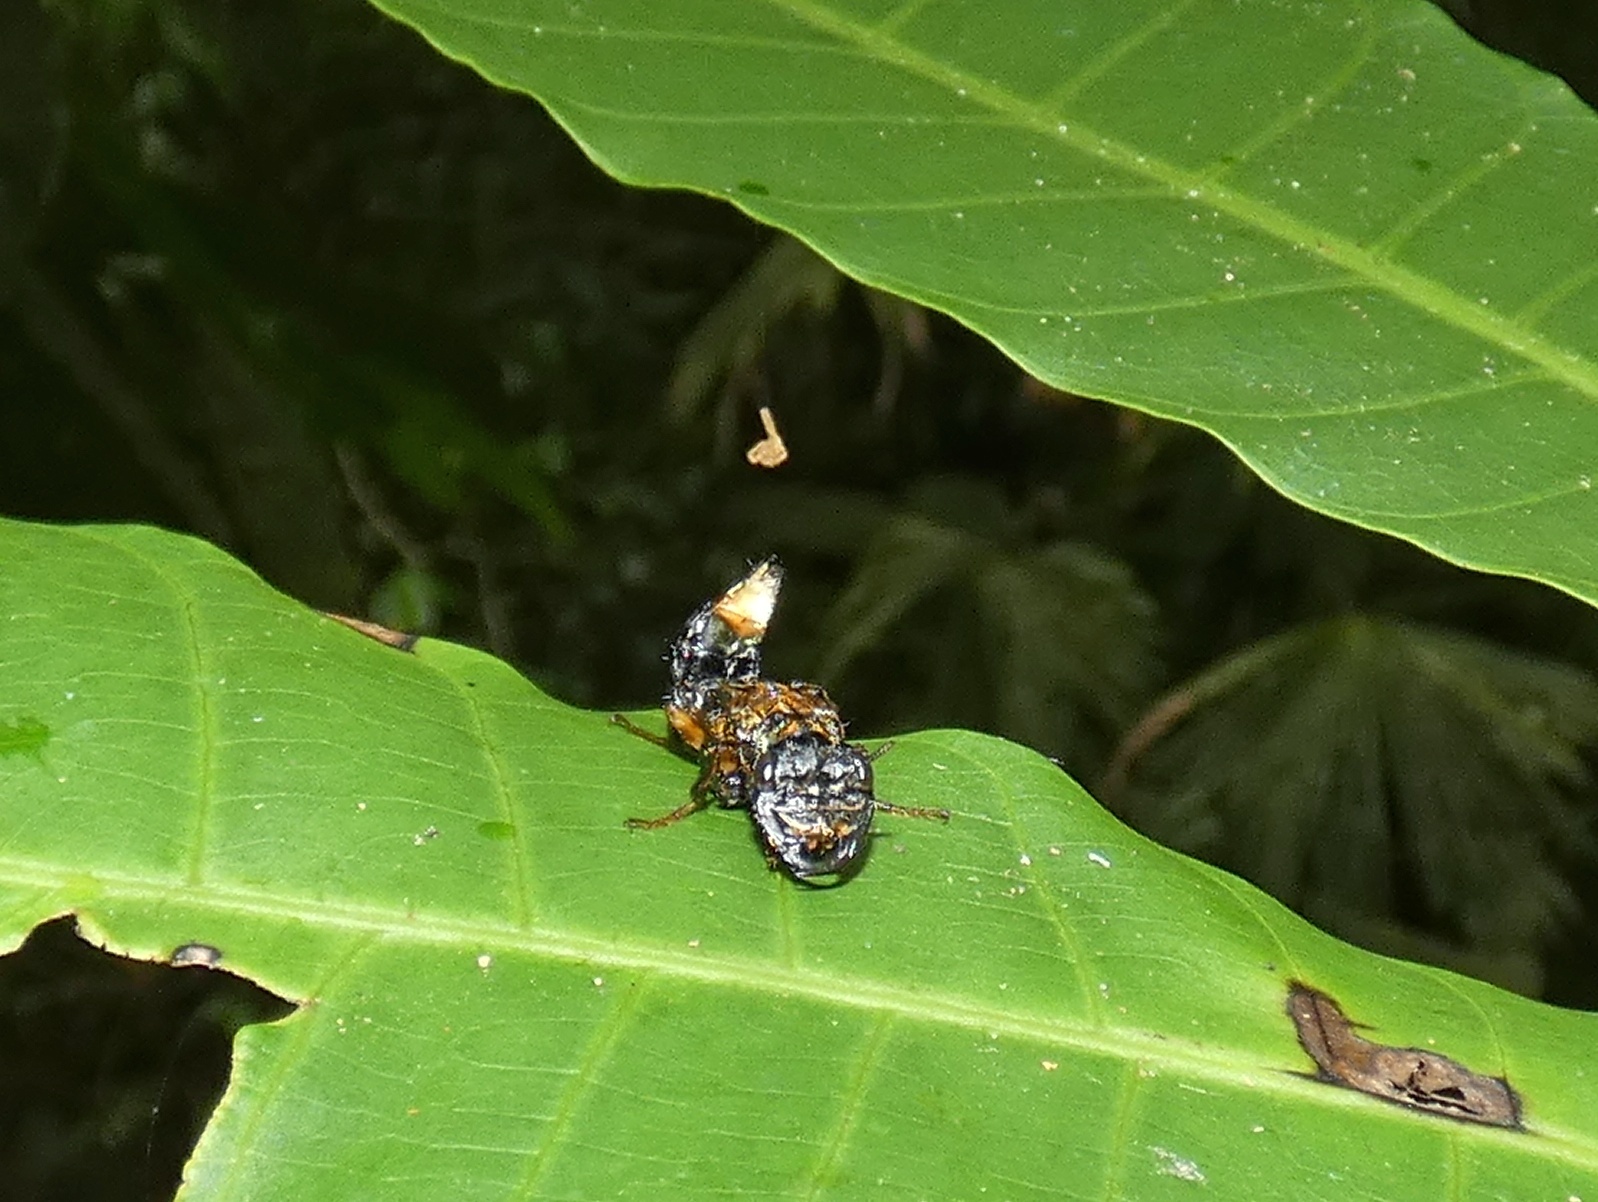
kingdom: Animalia
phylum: Arthropoda
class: Insecta
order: Coleoptera
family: Staphylinidae
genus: Leistotrophus
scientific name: Leistotrophus versicolor
